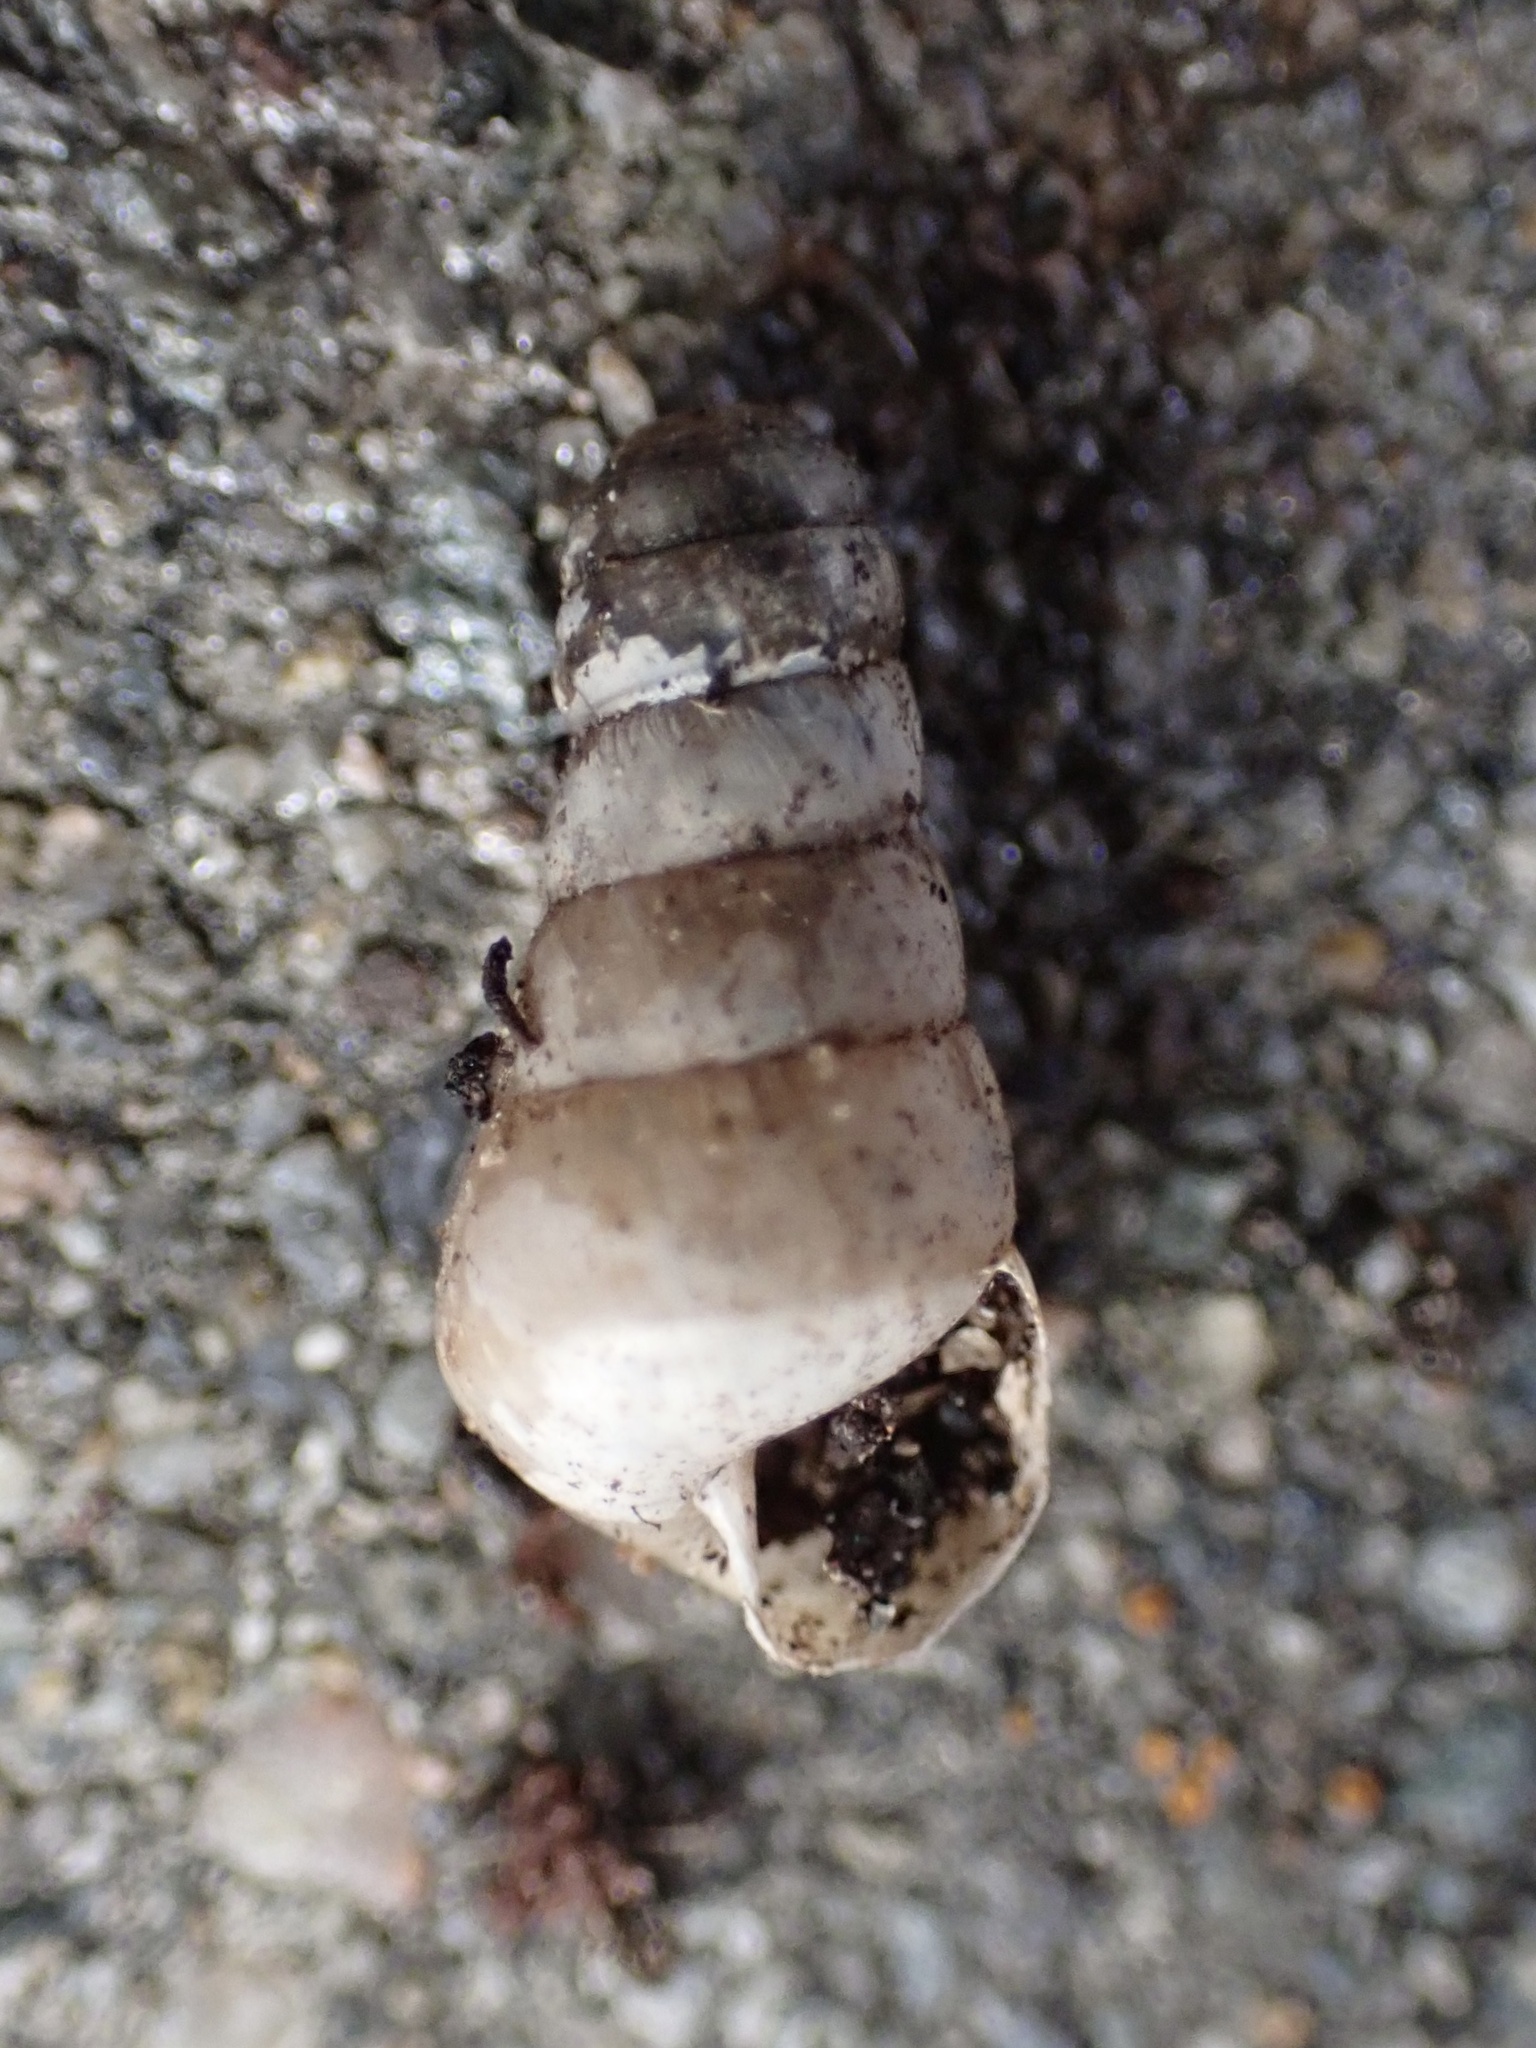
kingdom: Animalia
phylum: Mollusca
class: Gastropoda
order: Stylommatophora
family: Achatinidae
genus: Rumina
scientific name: Rumina decollata
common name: Decollate snail
